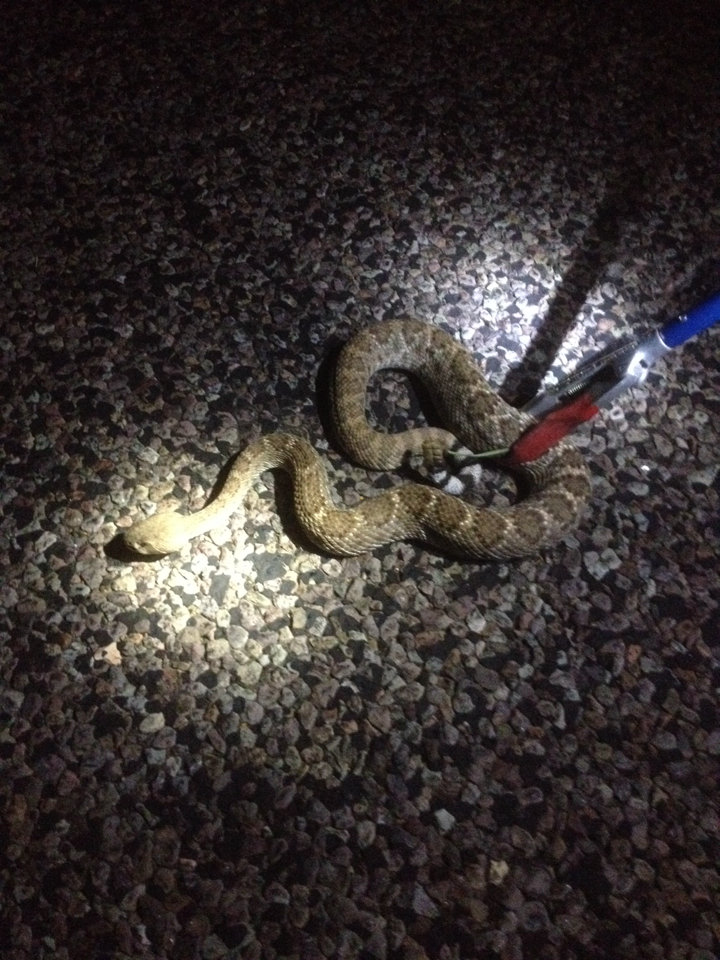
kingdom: Animalia
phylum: Chordata
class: Squamata
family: Viperidae
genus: Crotalus
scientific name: Crotalus atrox
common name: Western diamond-backed rattlesnake
